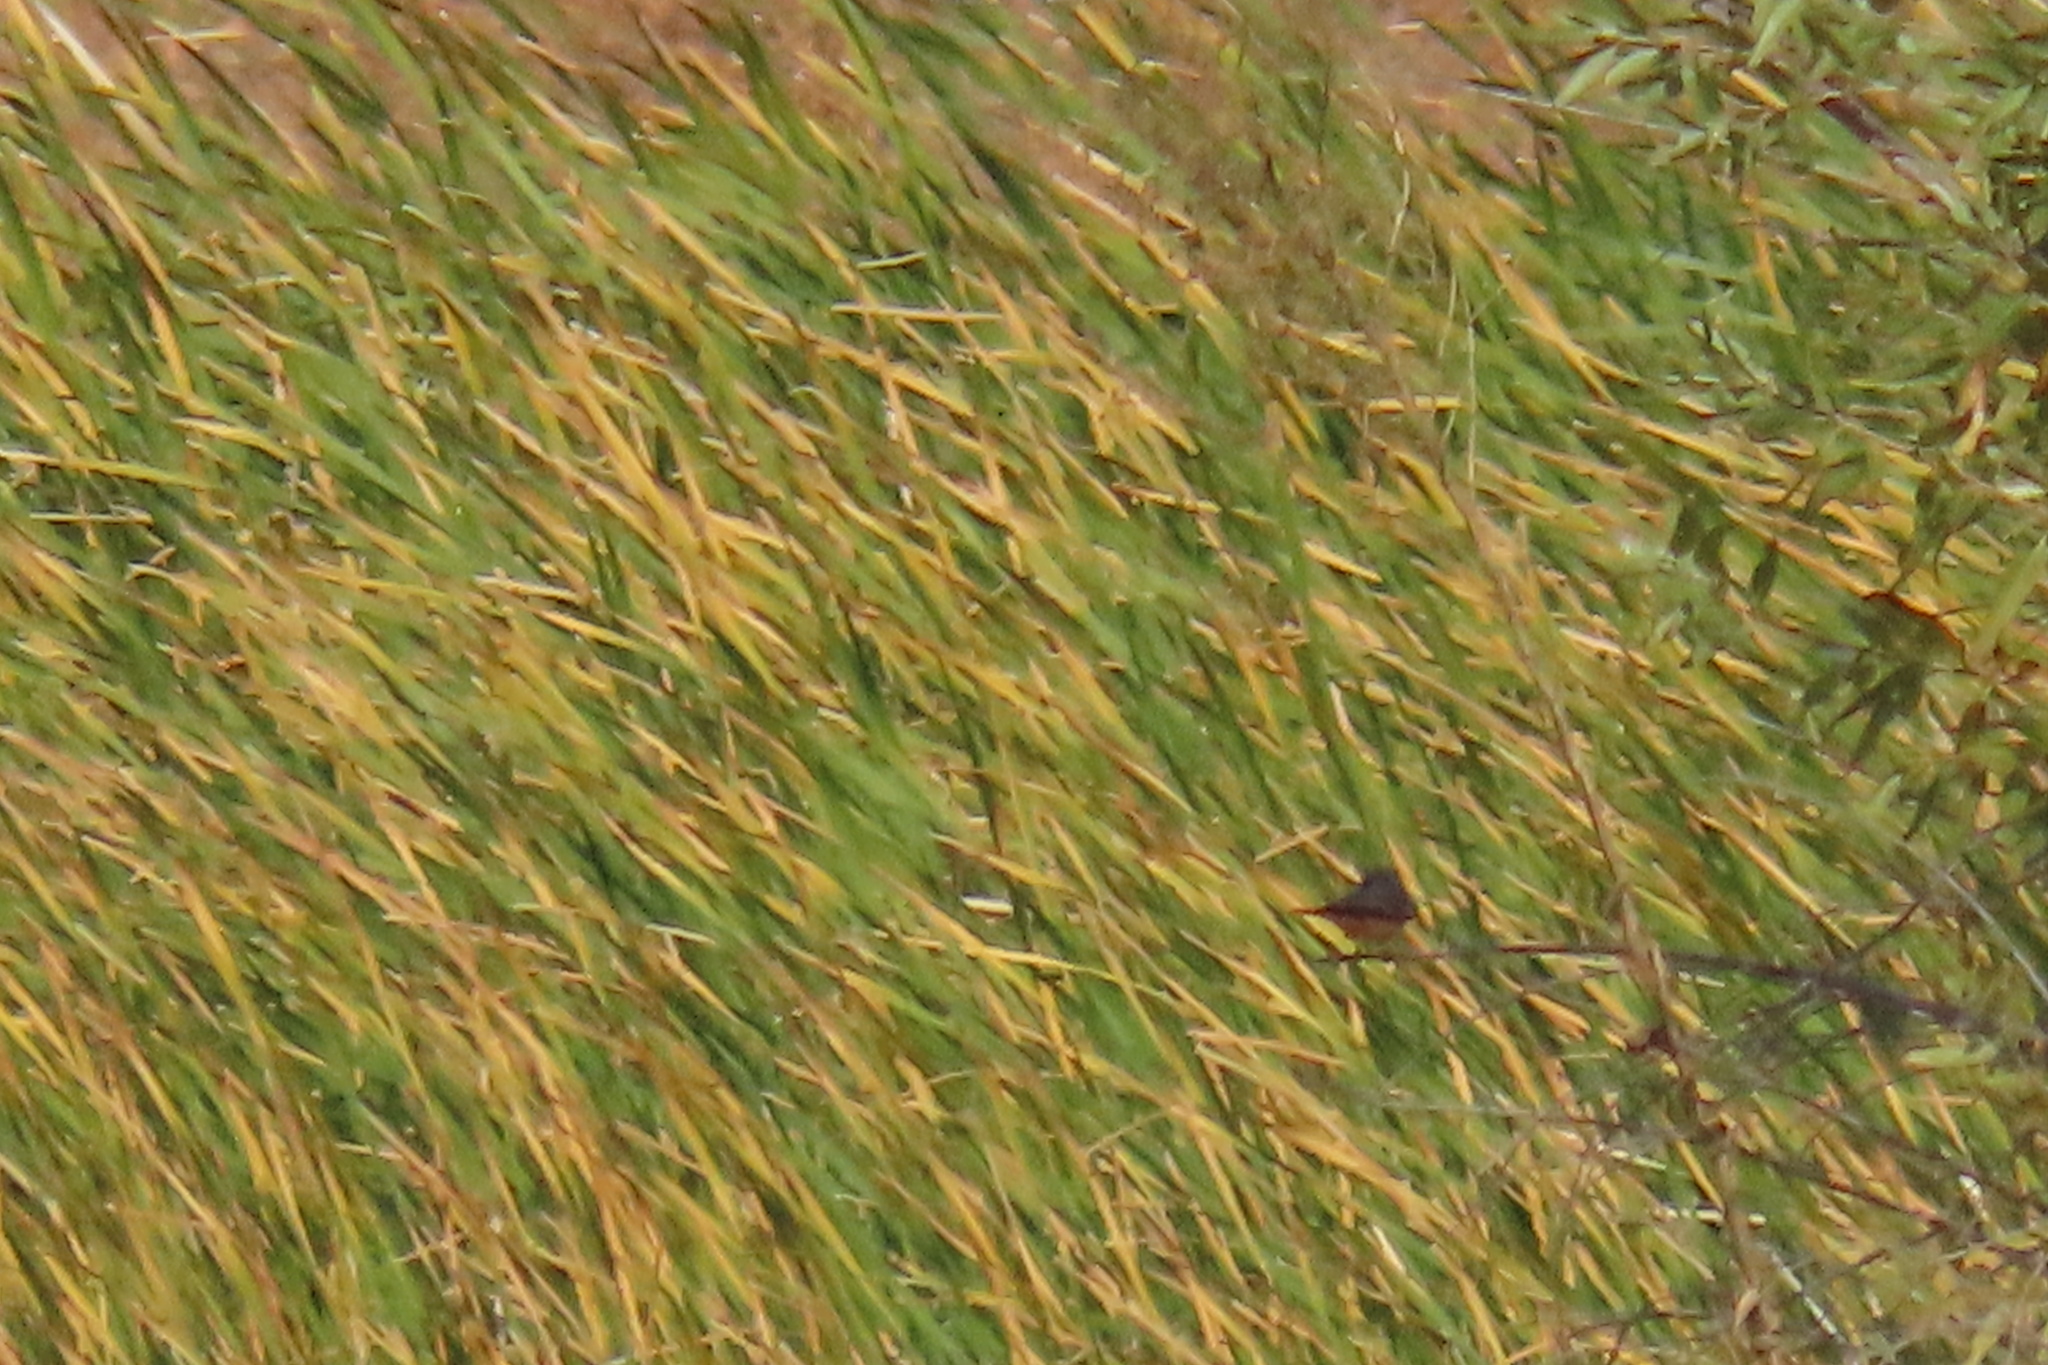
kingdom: Animalia
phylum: Chordata
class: Aves
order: Passeriformes
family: Tyrannidae
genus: Pyrocephalus
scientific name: Pyrocephalus rubinus
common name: Vermilion flycatcher
